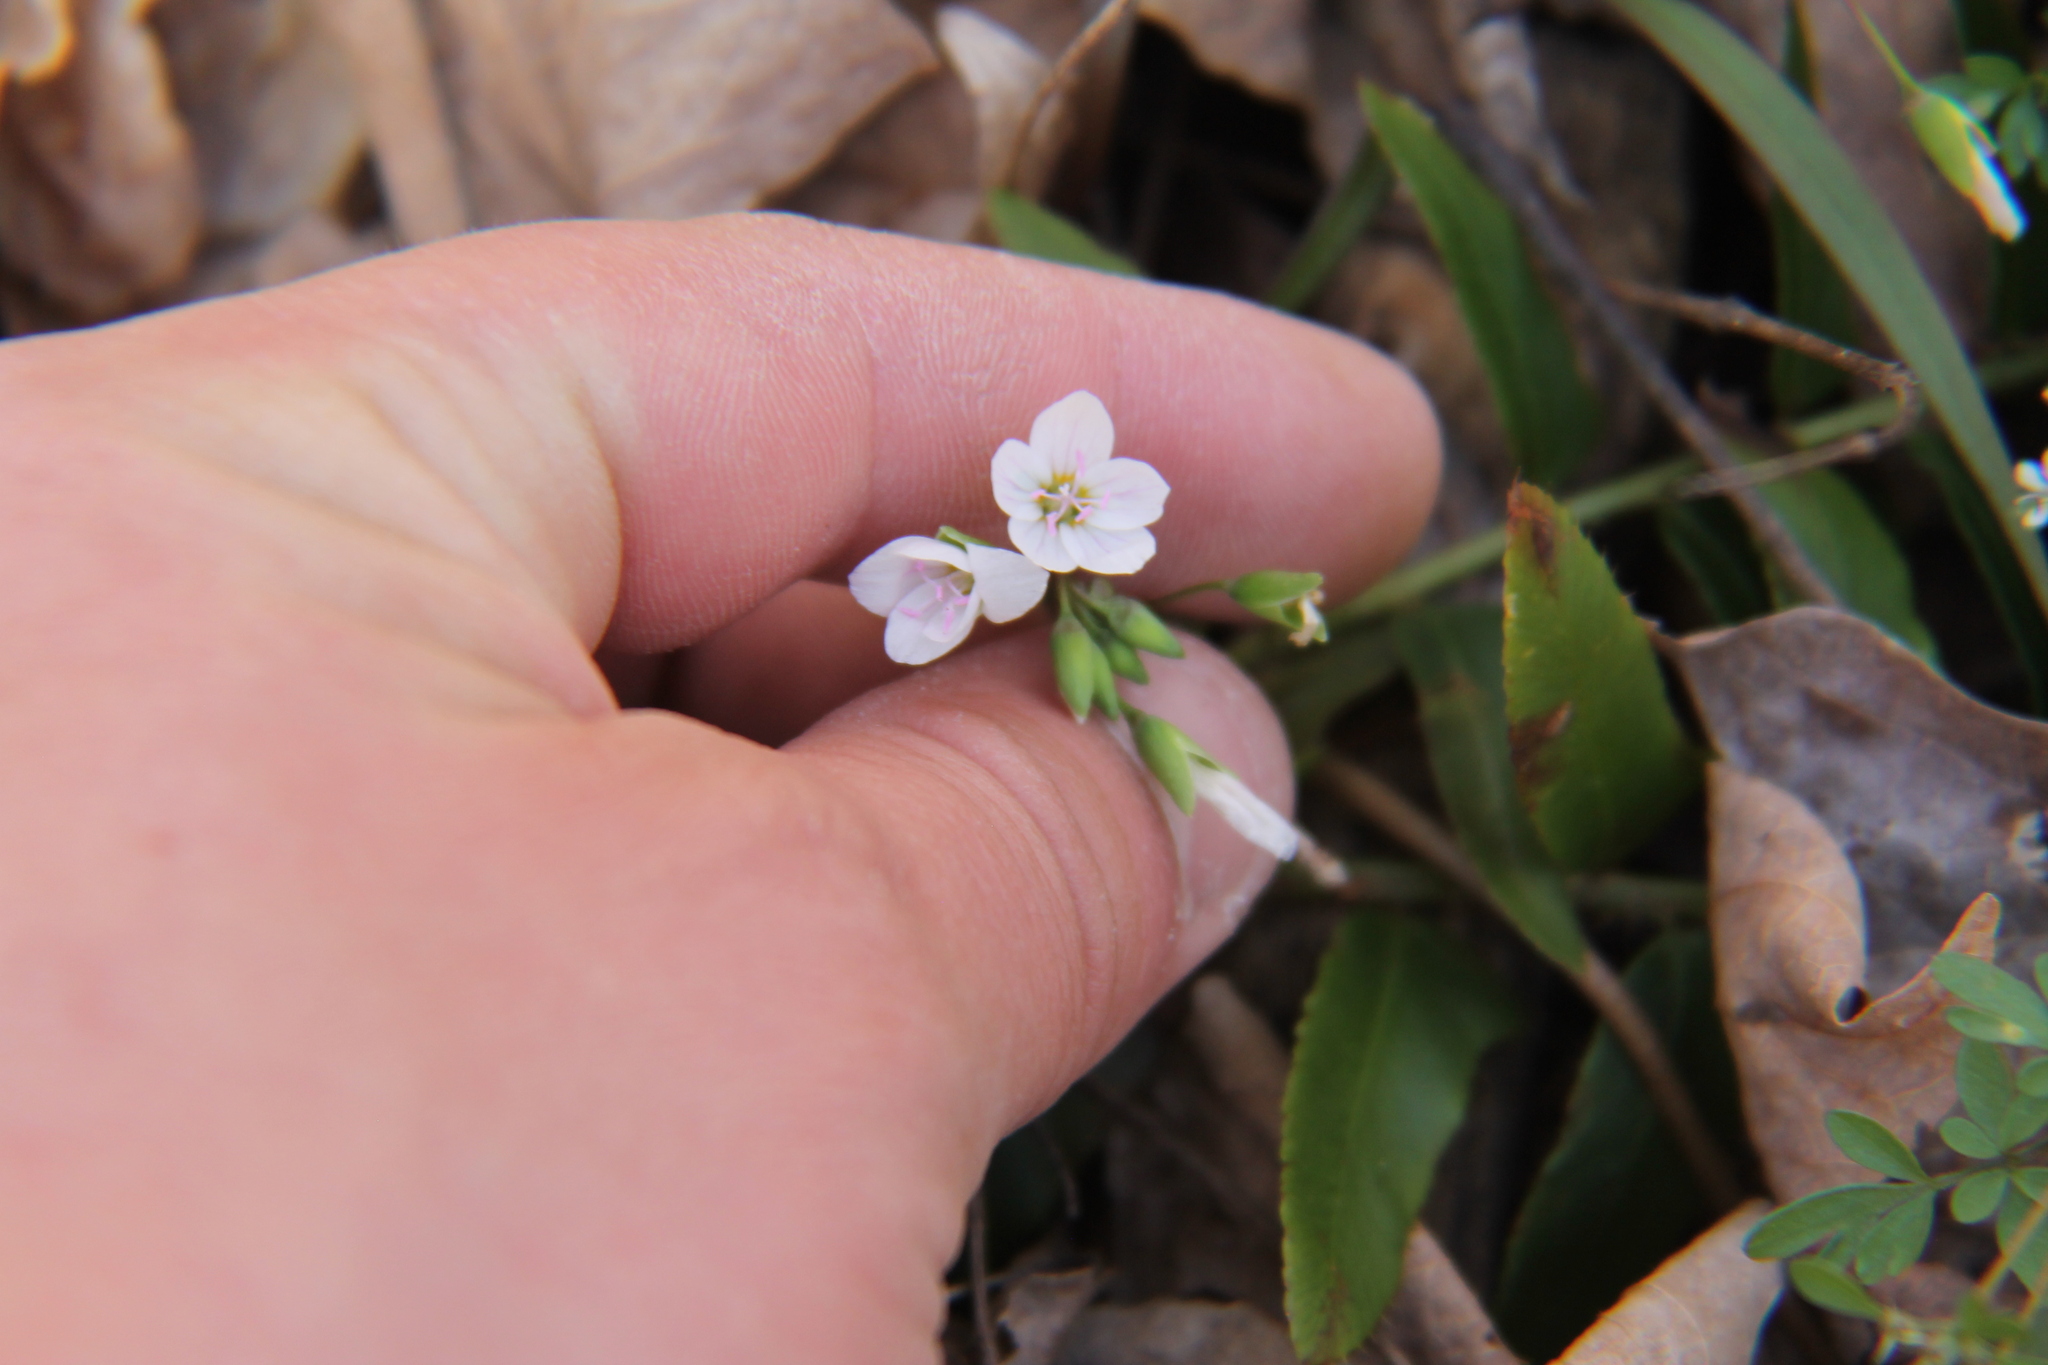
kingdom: Plantae
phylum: Tracheophyta
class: Magnoliopsida
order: Caryophyllales
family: Montiaceae
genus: Claytonia
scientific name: Claytonia virginica
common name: Virginia springbeauty
